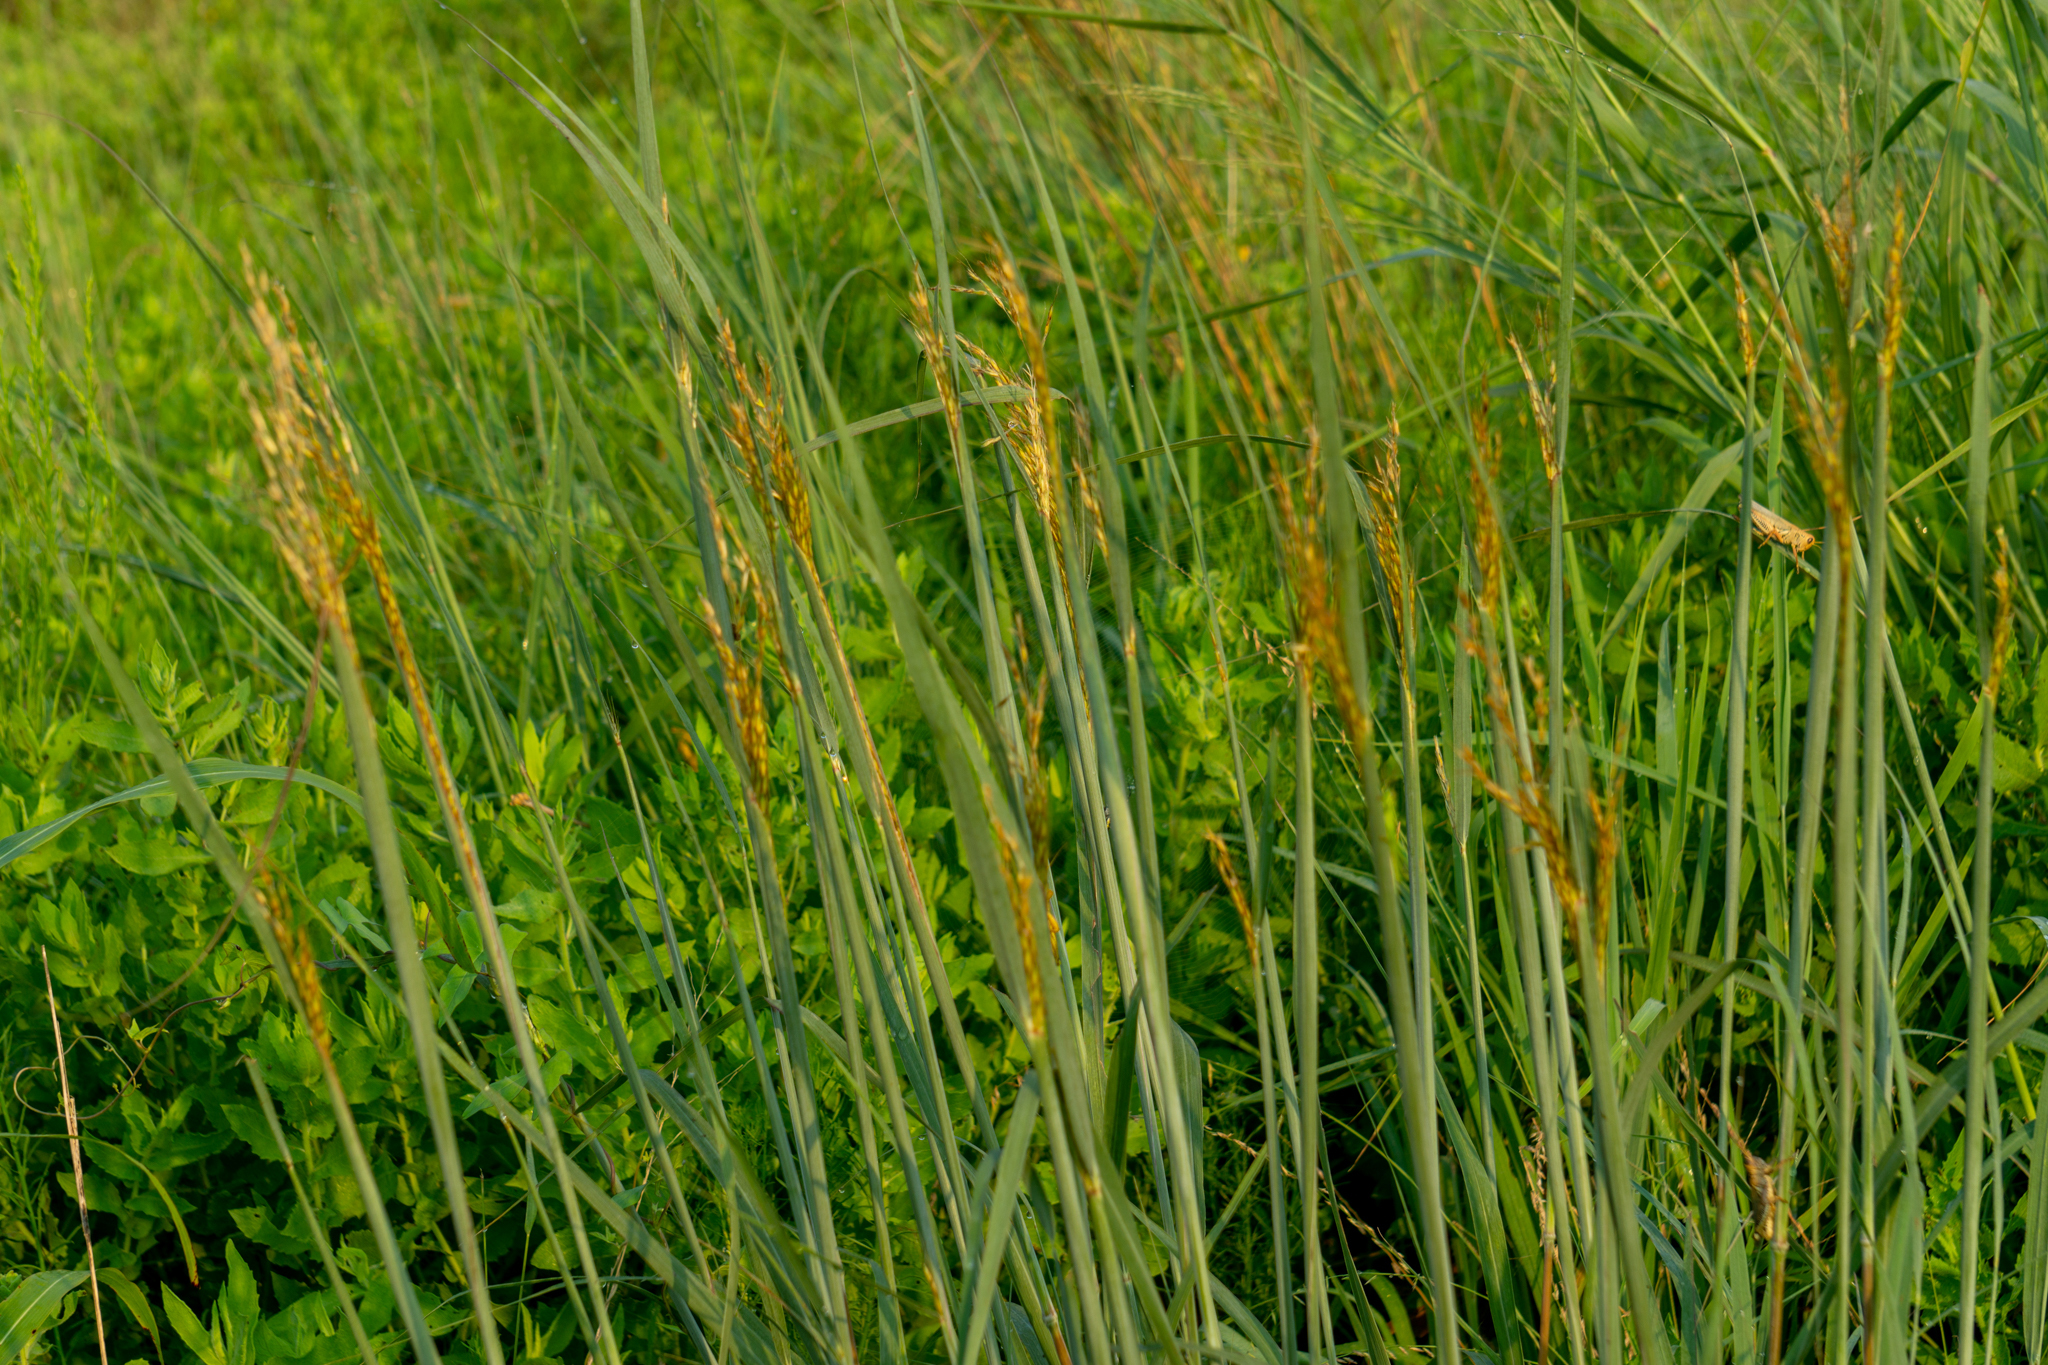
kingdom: Plantae
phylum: Tracheophyta
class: Liliopsida
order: Poales
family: Poaceae
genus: Sorghastrum
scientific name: Sorghastrum nutans
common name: Indian grass
